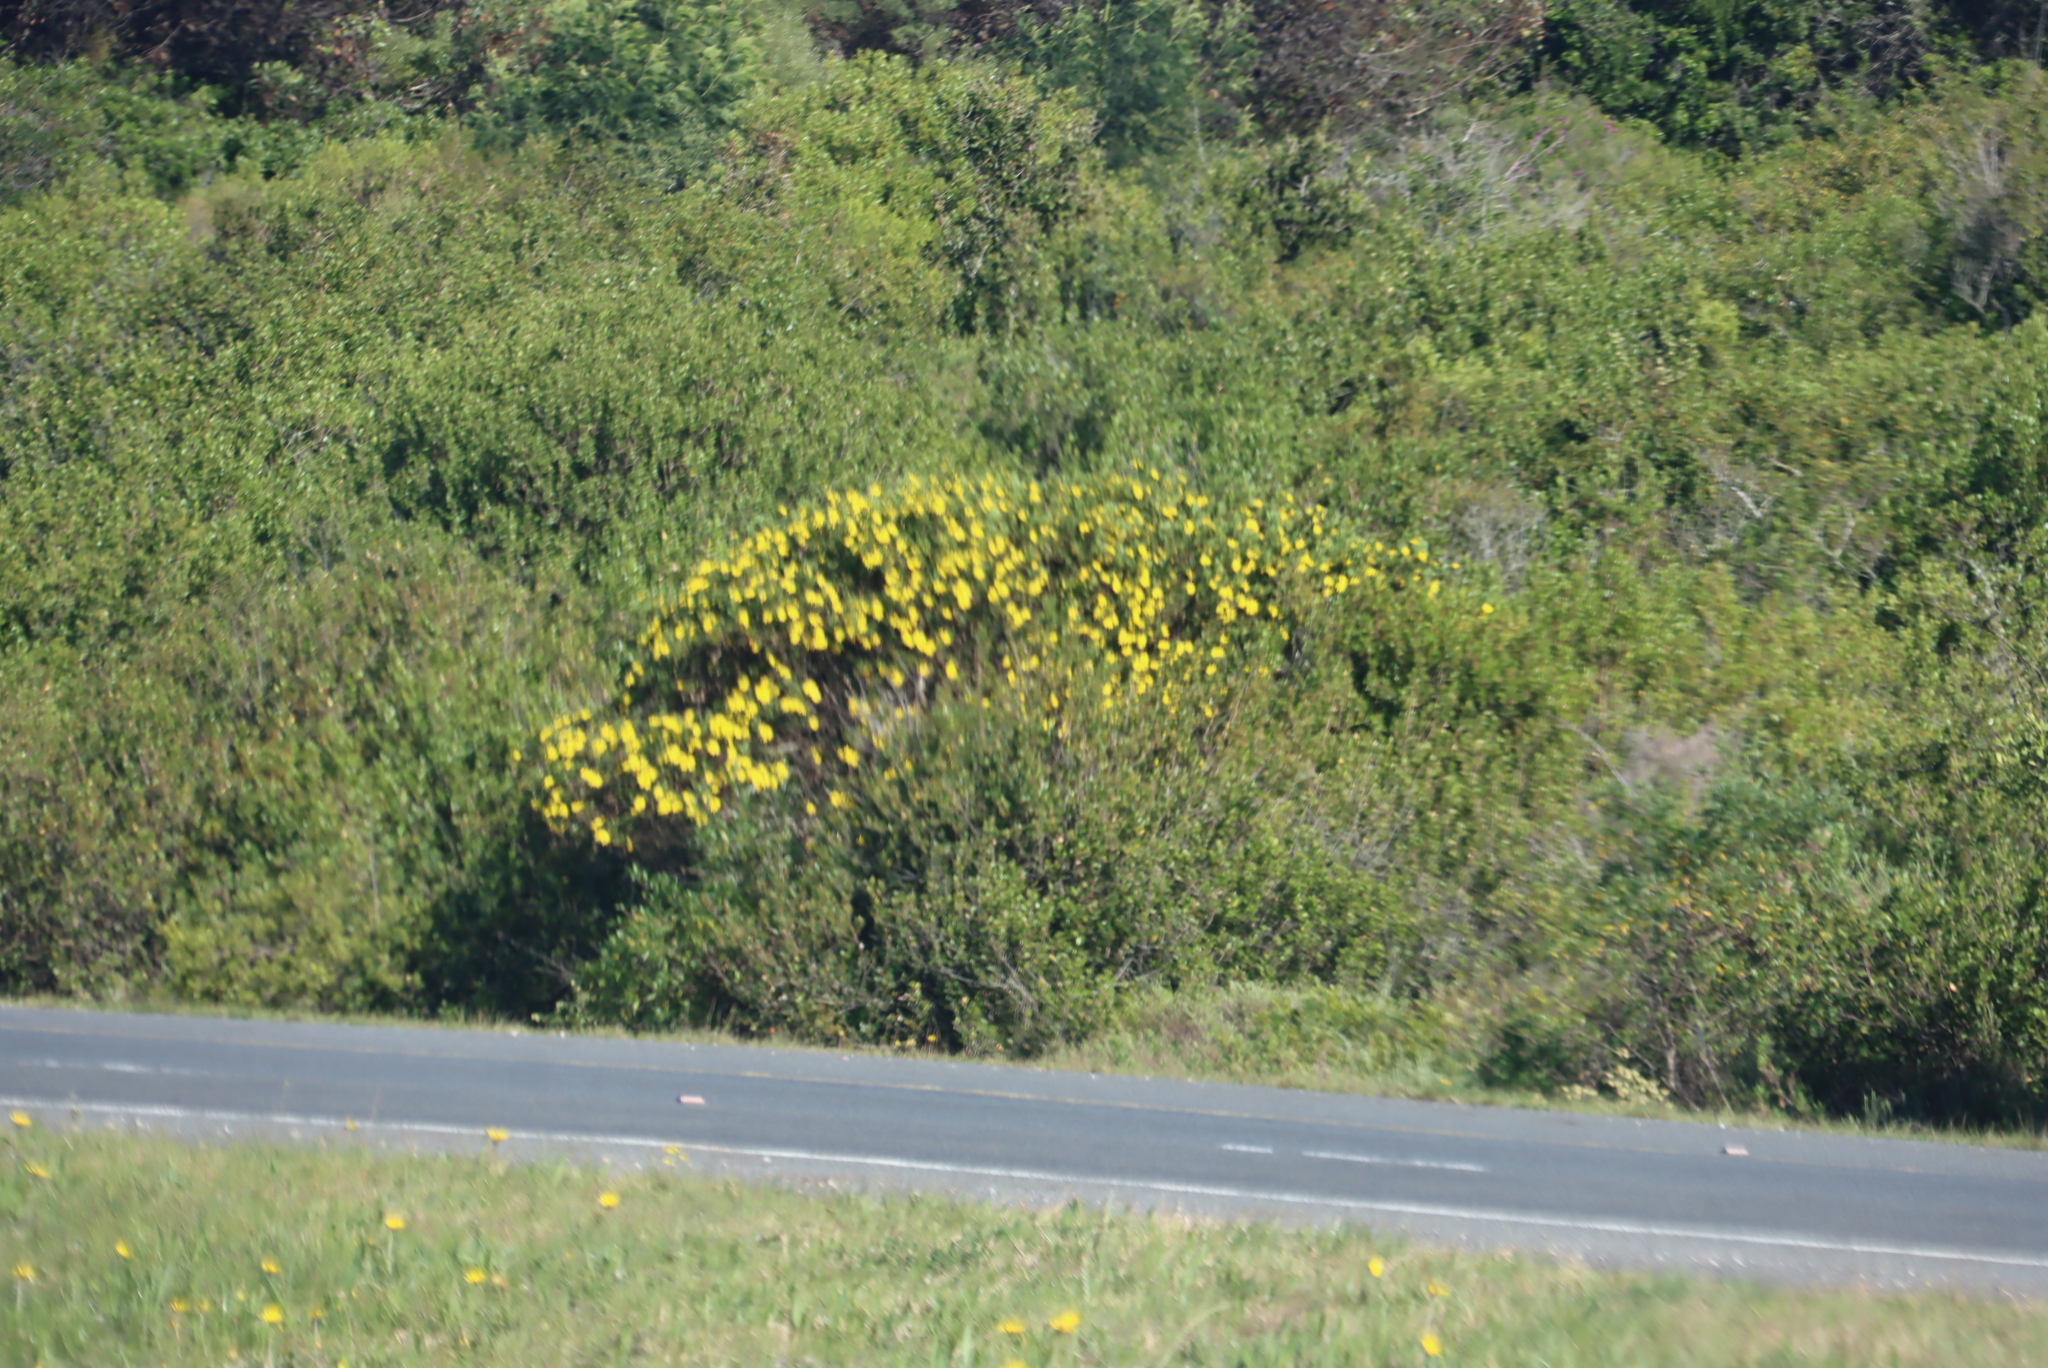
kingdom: Plantae
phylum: Tracheophyta
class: Magnoliopsida
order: Asterales
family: Asteraceae
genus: Osteospermum
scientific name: Osteospermum moniliferum
